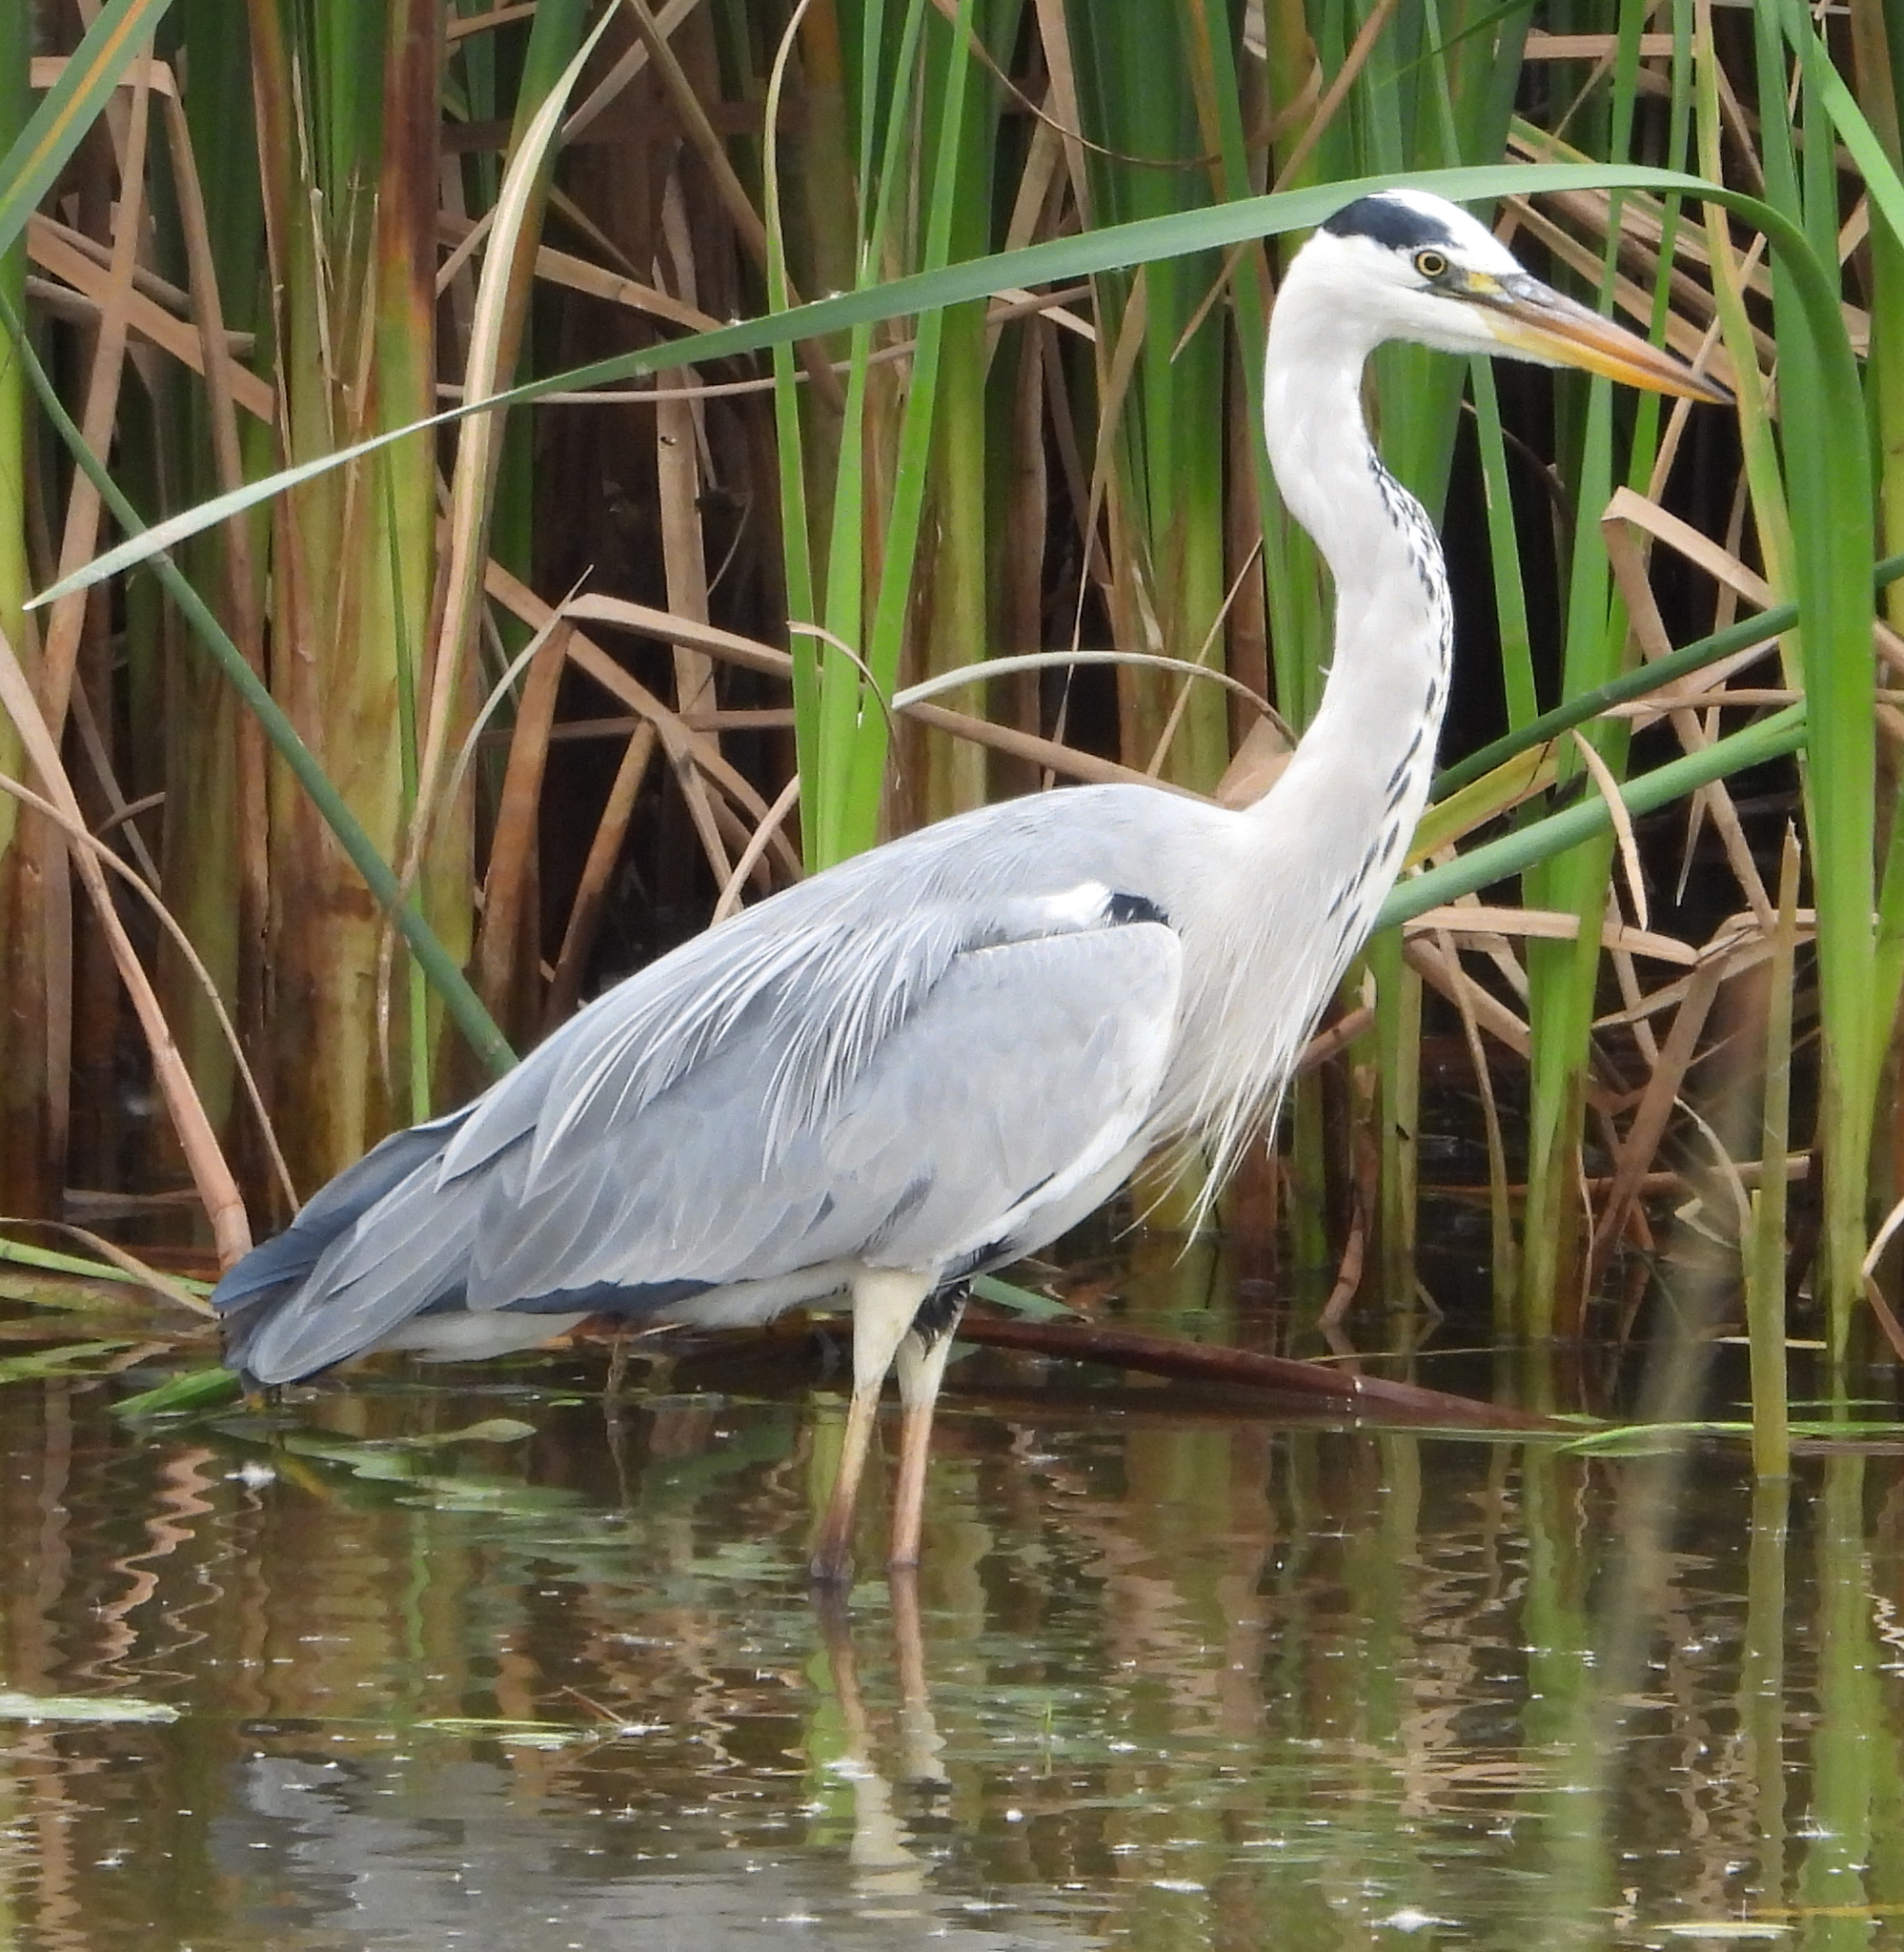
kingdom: Animalia
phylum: Chordata
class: Aves
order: Pelecaniformes
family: Ardeidae
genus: Ardea
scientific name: Ardea cinerea
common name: Grey heron
